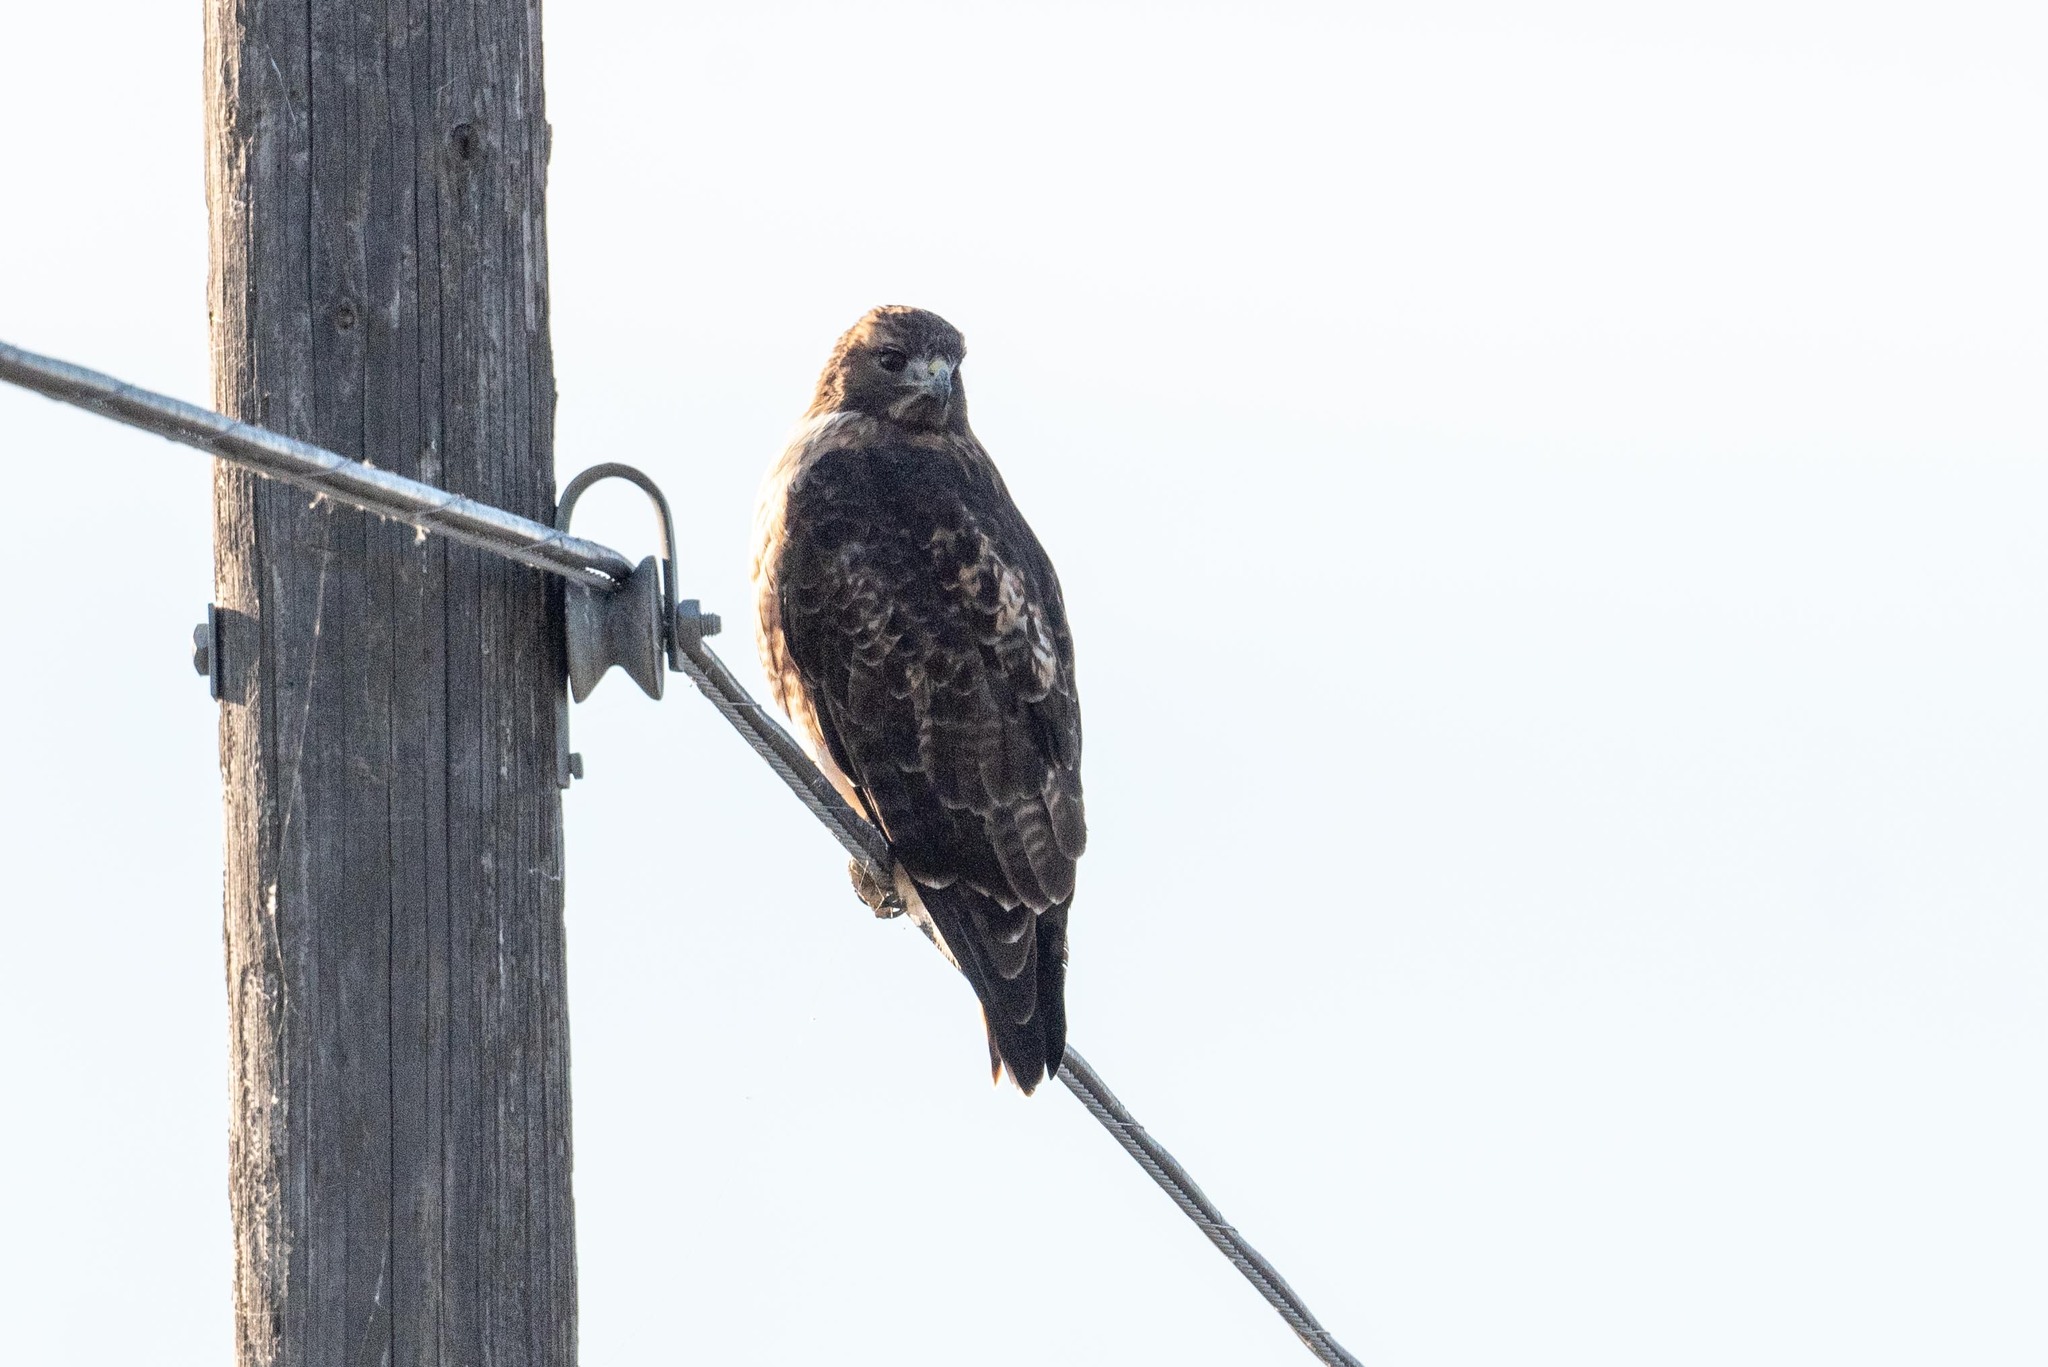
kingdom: Animalia
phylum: Chordata
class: Aves
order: Accipitriformes
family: Accipitridae
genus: Buteo
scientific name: Buteo jamaicensis
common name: Red-tailed hawk
